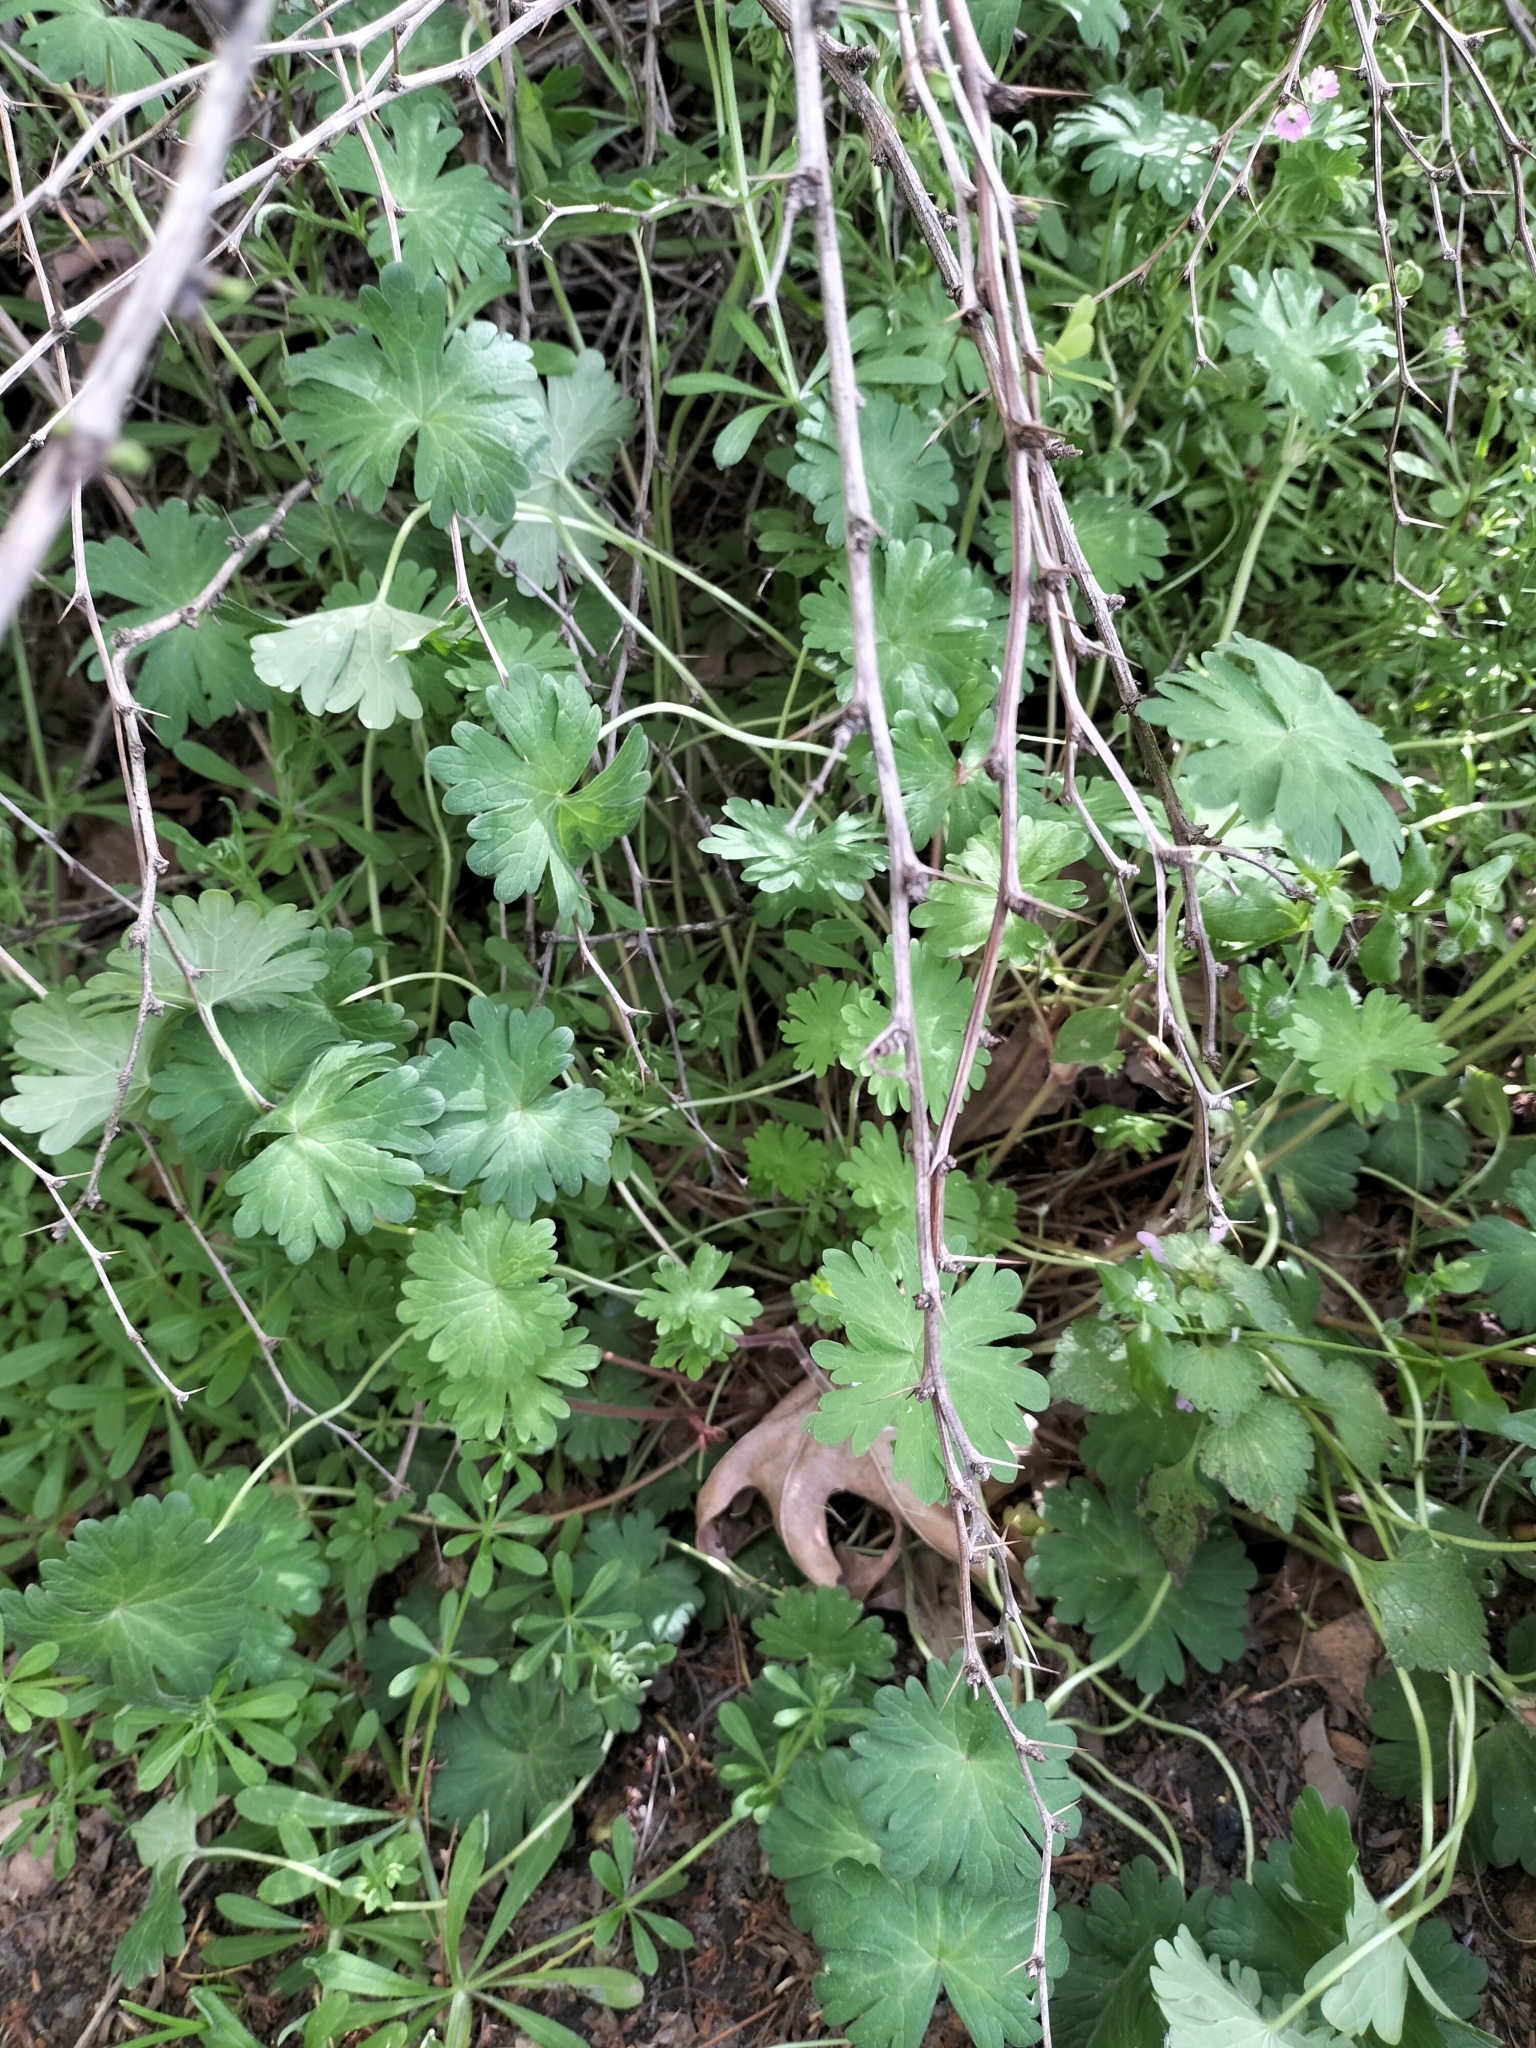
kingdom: Plantae
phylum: Tracheophyta
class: Magnoliopsida
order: Geraniales
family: Geraniaceae
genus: Geranium
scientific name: Geranium molle
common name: Dove's-foot crane's-bill
